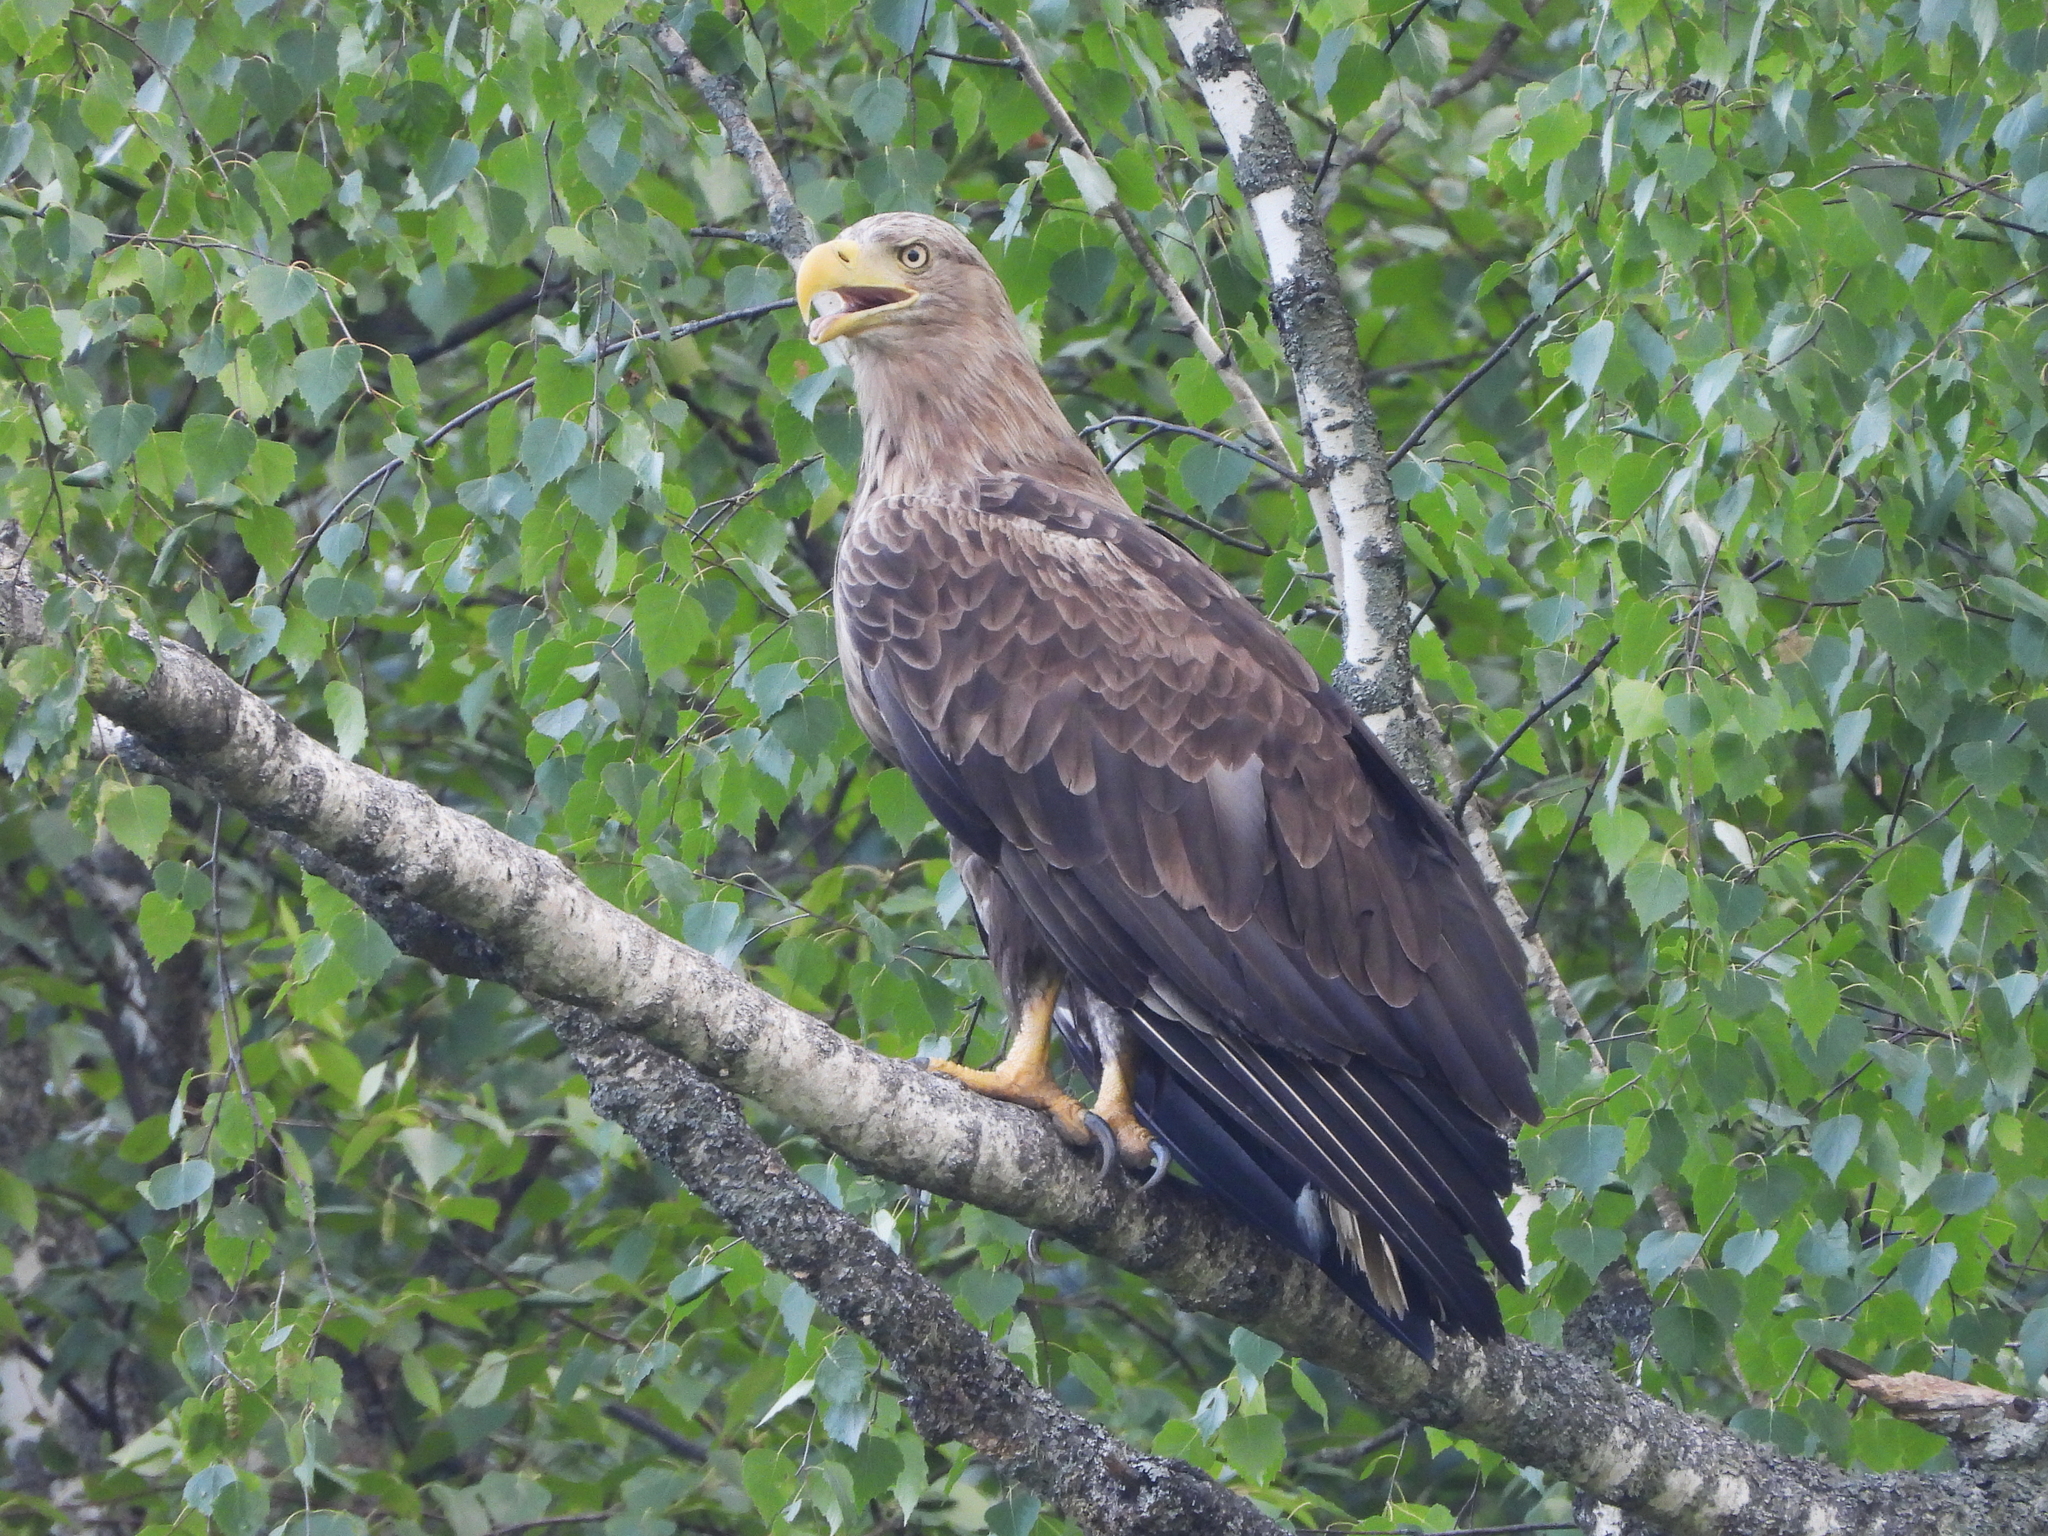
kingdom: Animalia
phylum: Chordata
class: Aves
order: Accipitriformes
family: Accipitridae
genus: Haliaeetus
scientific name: Haliaeetus albicilla
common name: White-tailed eagle
